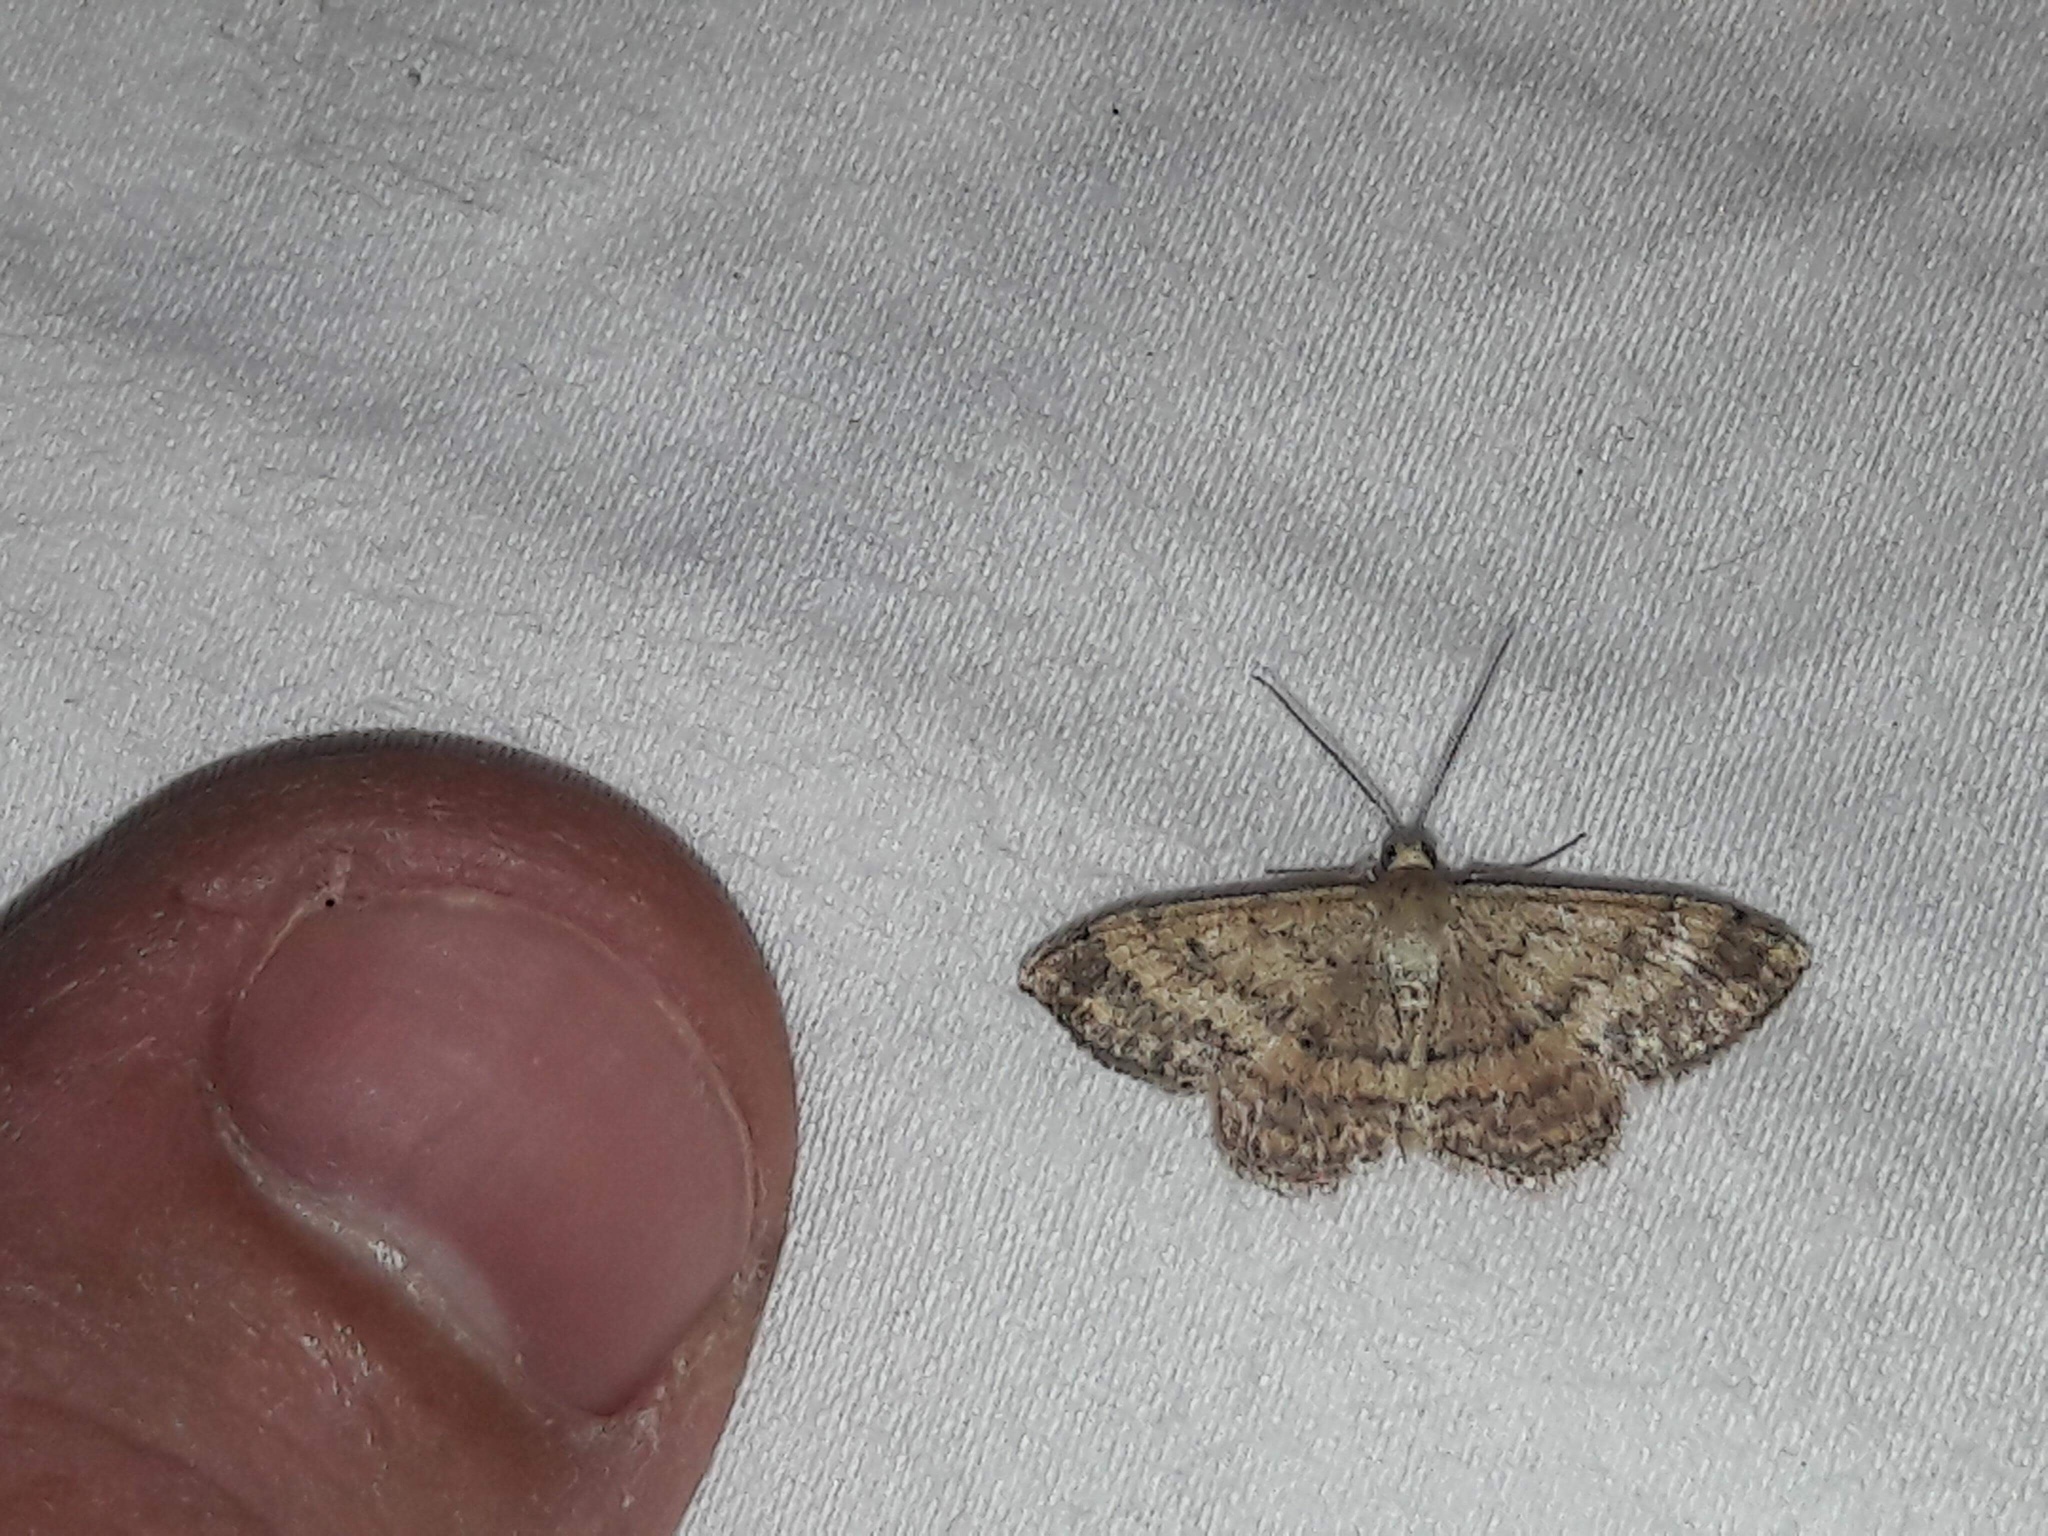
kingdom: Animalia
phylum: Arthropoda
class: Insecta
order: Lepidoptera
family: Geometridae
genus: Scopula
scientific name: Scopula rubraria
